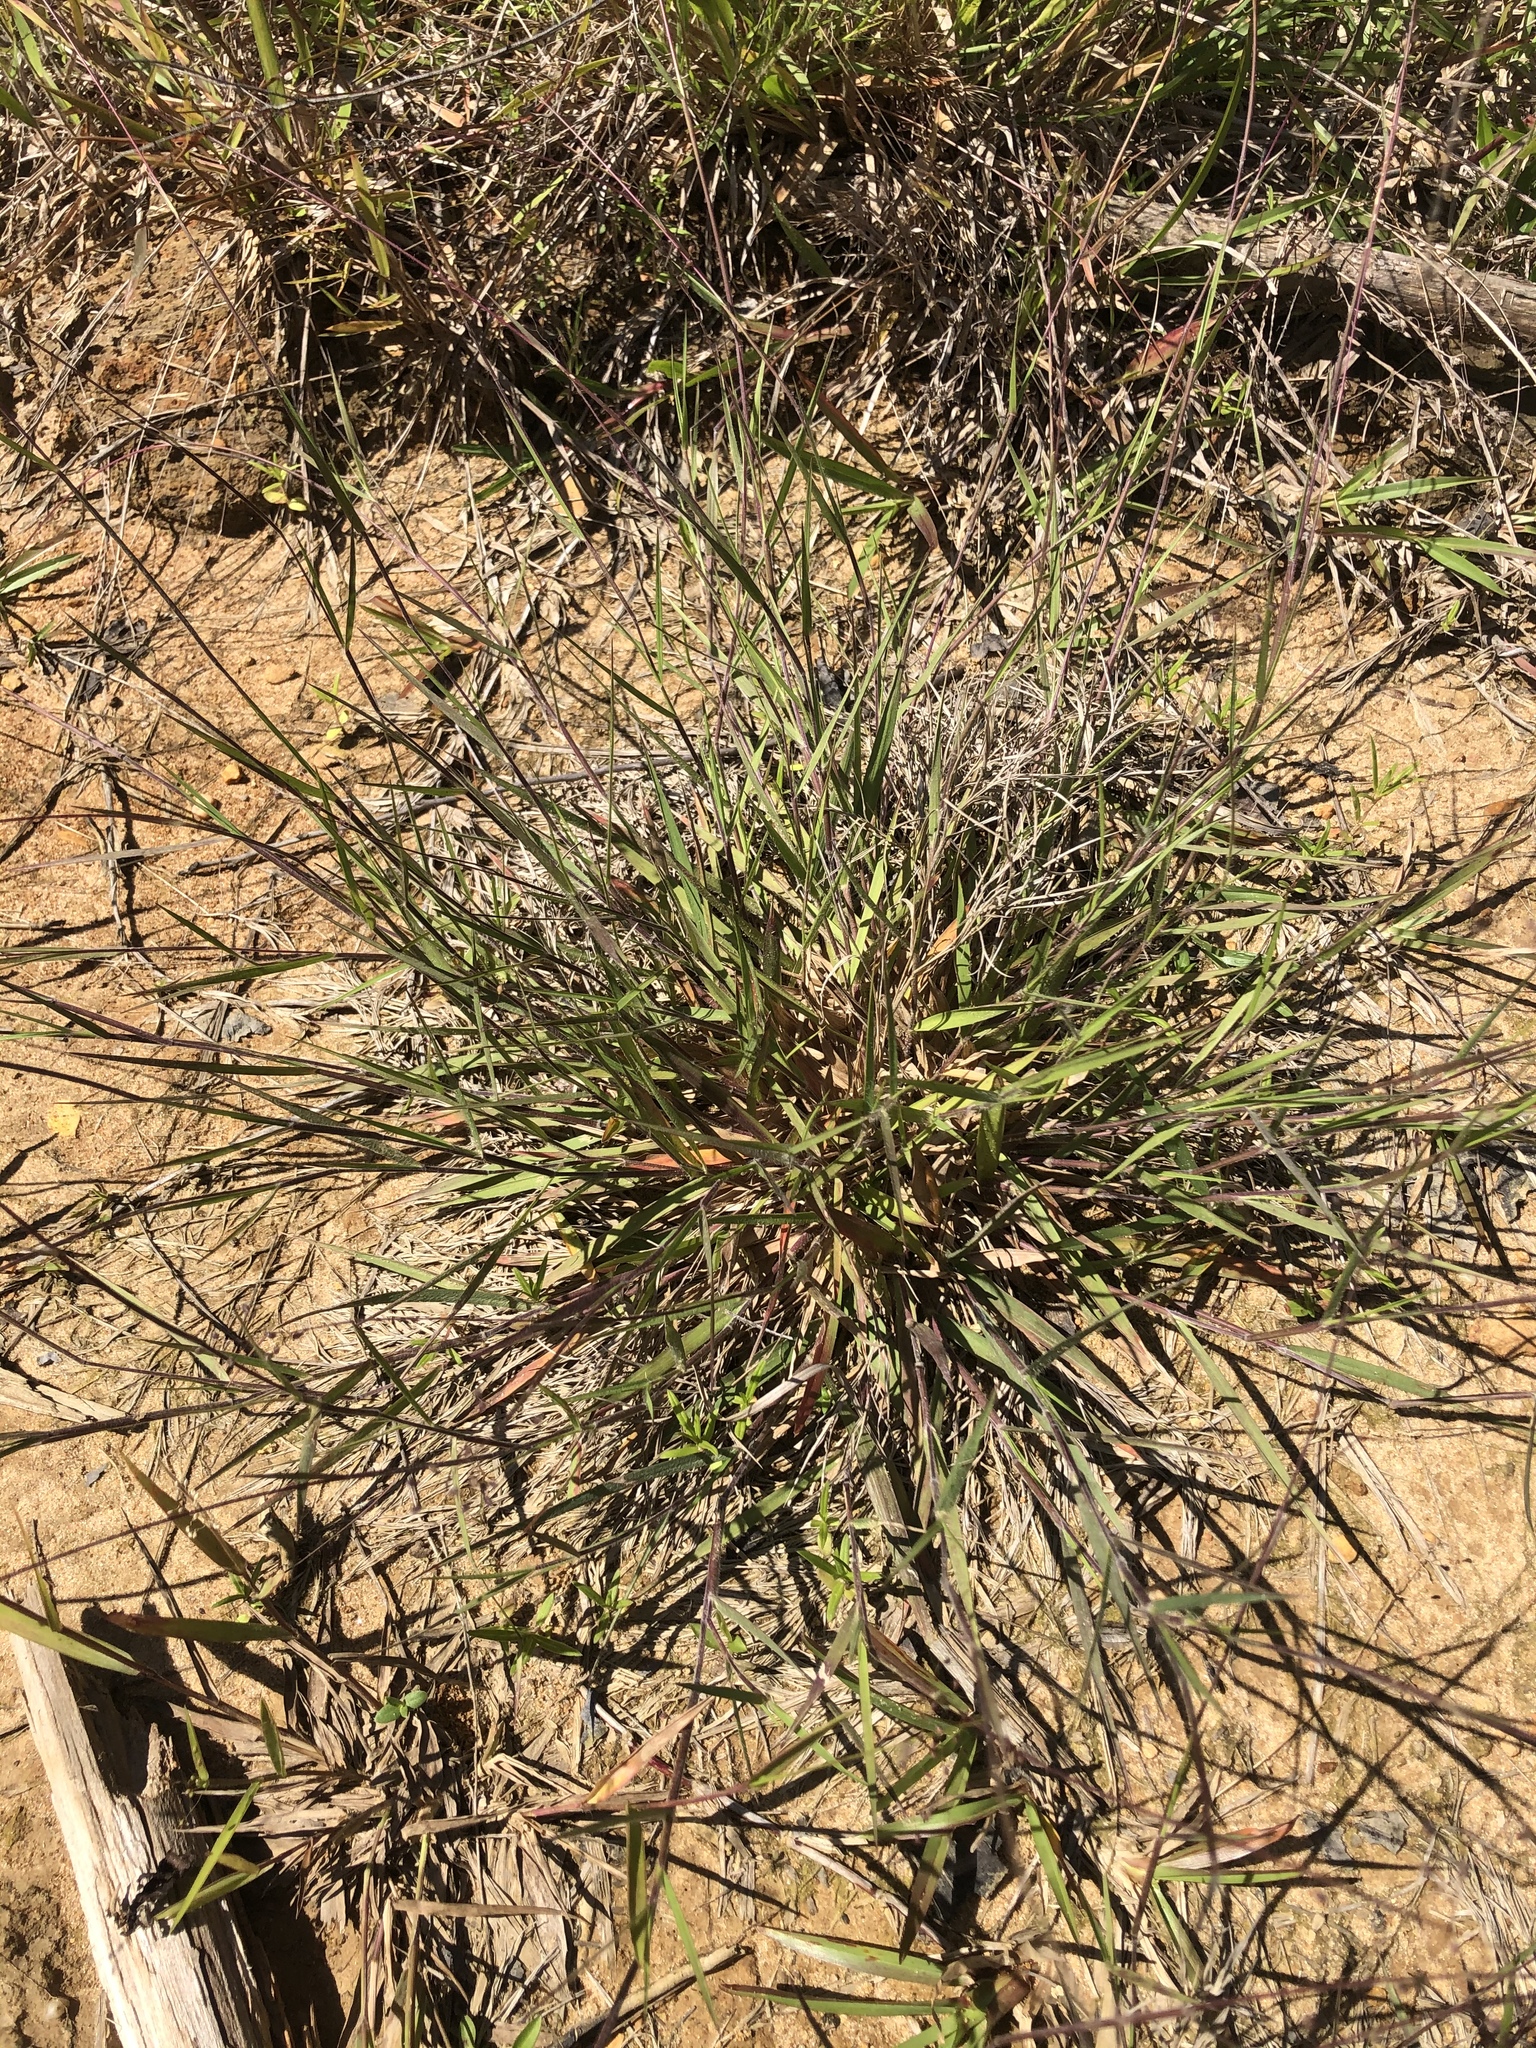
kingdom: Plantae
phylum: Tracheophyta
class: Liliopsida
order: Poales
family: Poaceae
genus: Dichanthelium
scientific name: Dichanthelium filiramum
